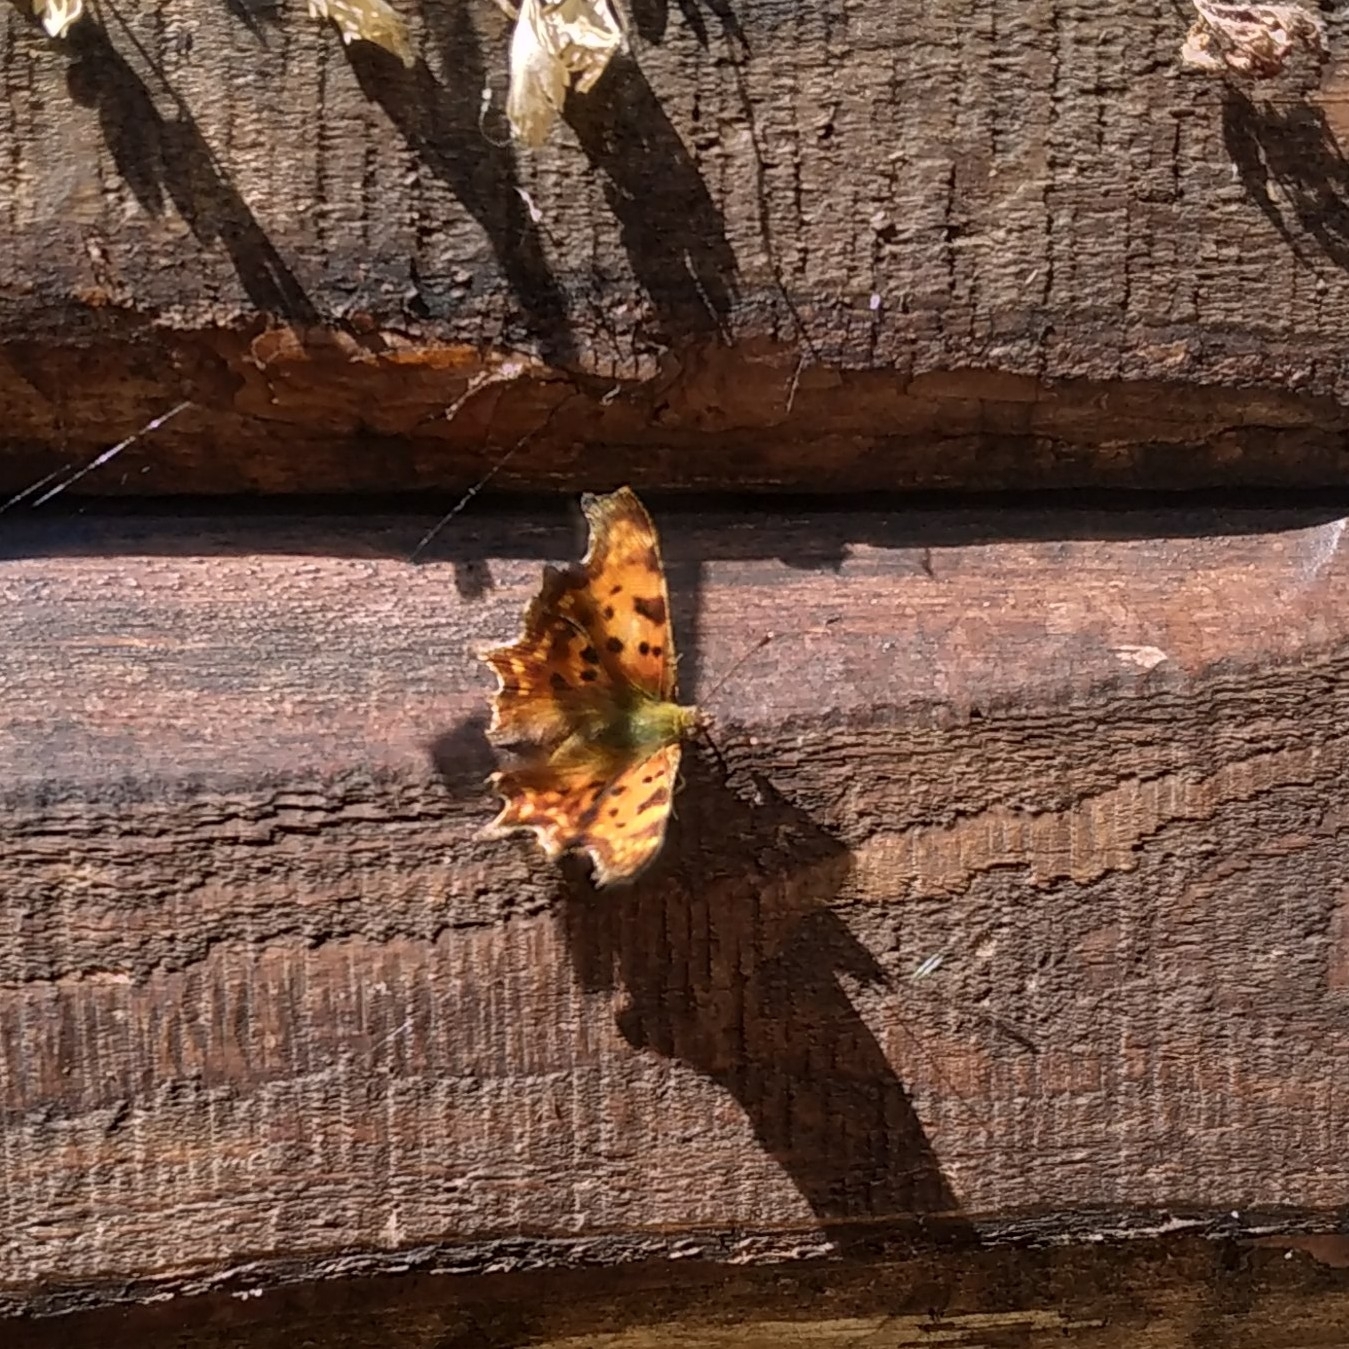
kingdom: Animalia
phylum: Arthropoda
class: Insecta
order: Lepidoptera
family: Nymphalidae
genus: Polygonia
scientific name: Polygonia c-album
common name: Comma
